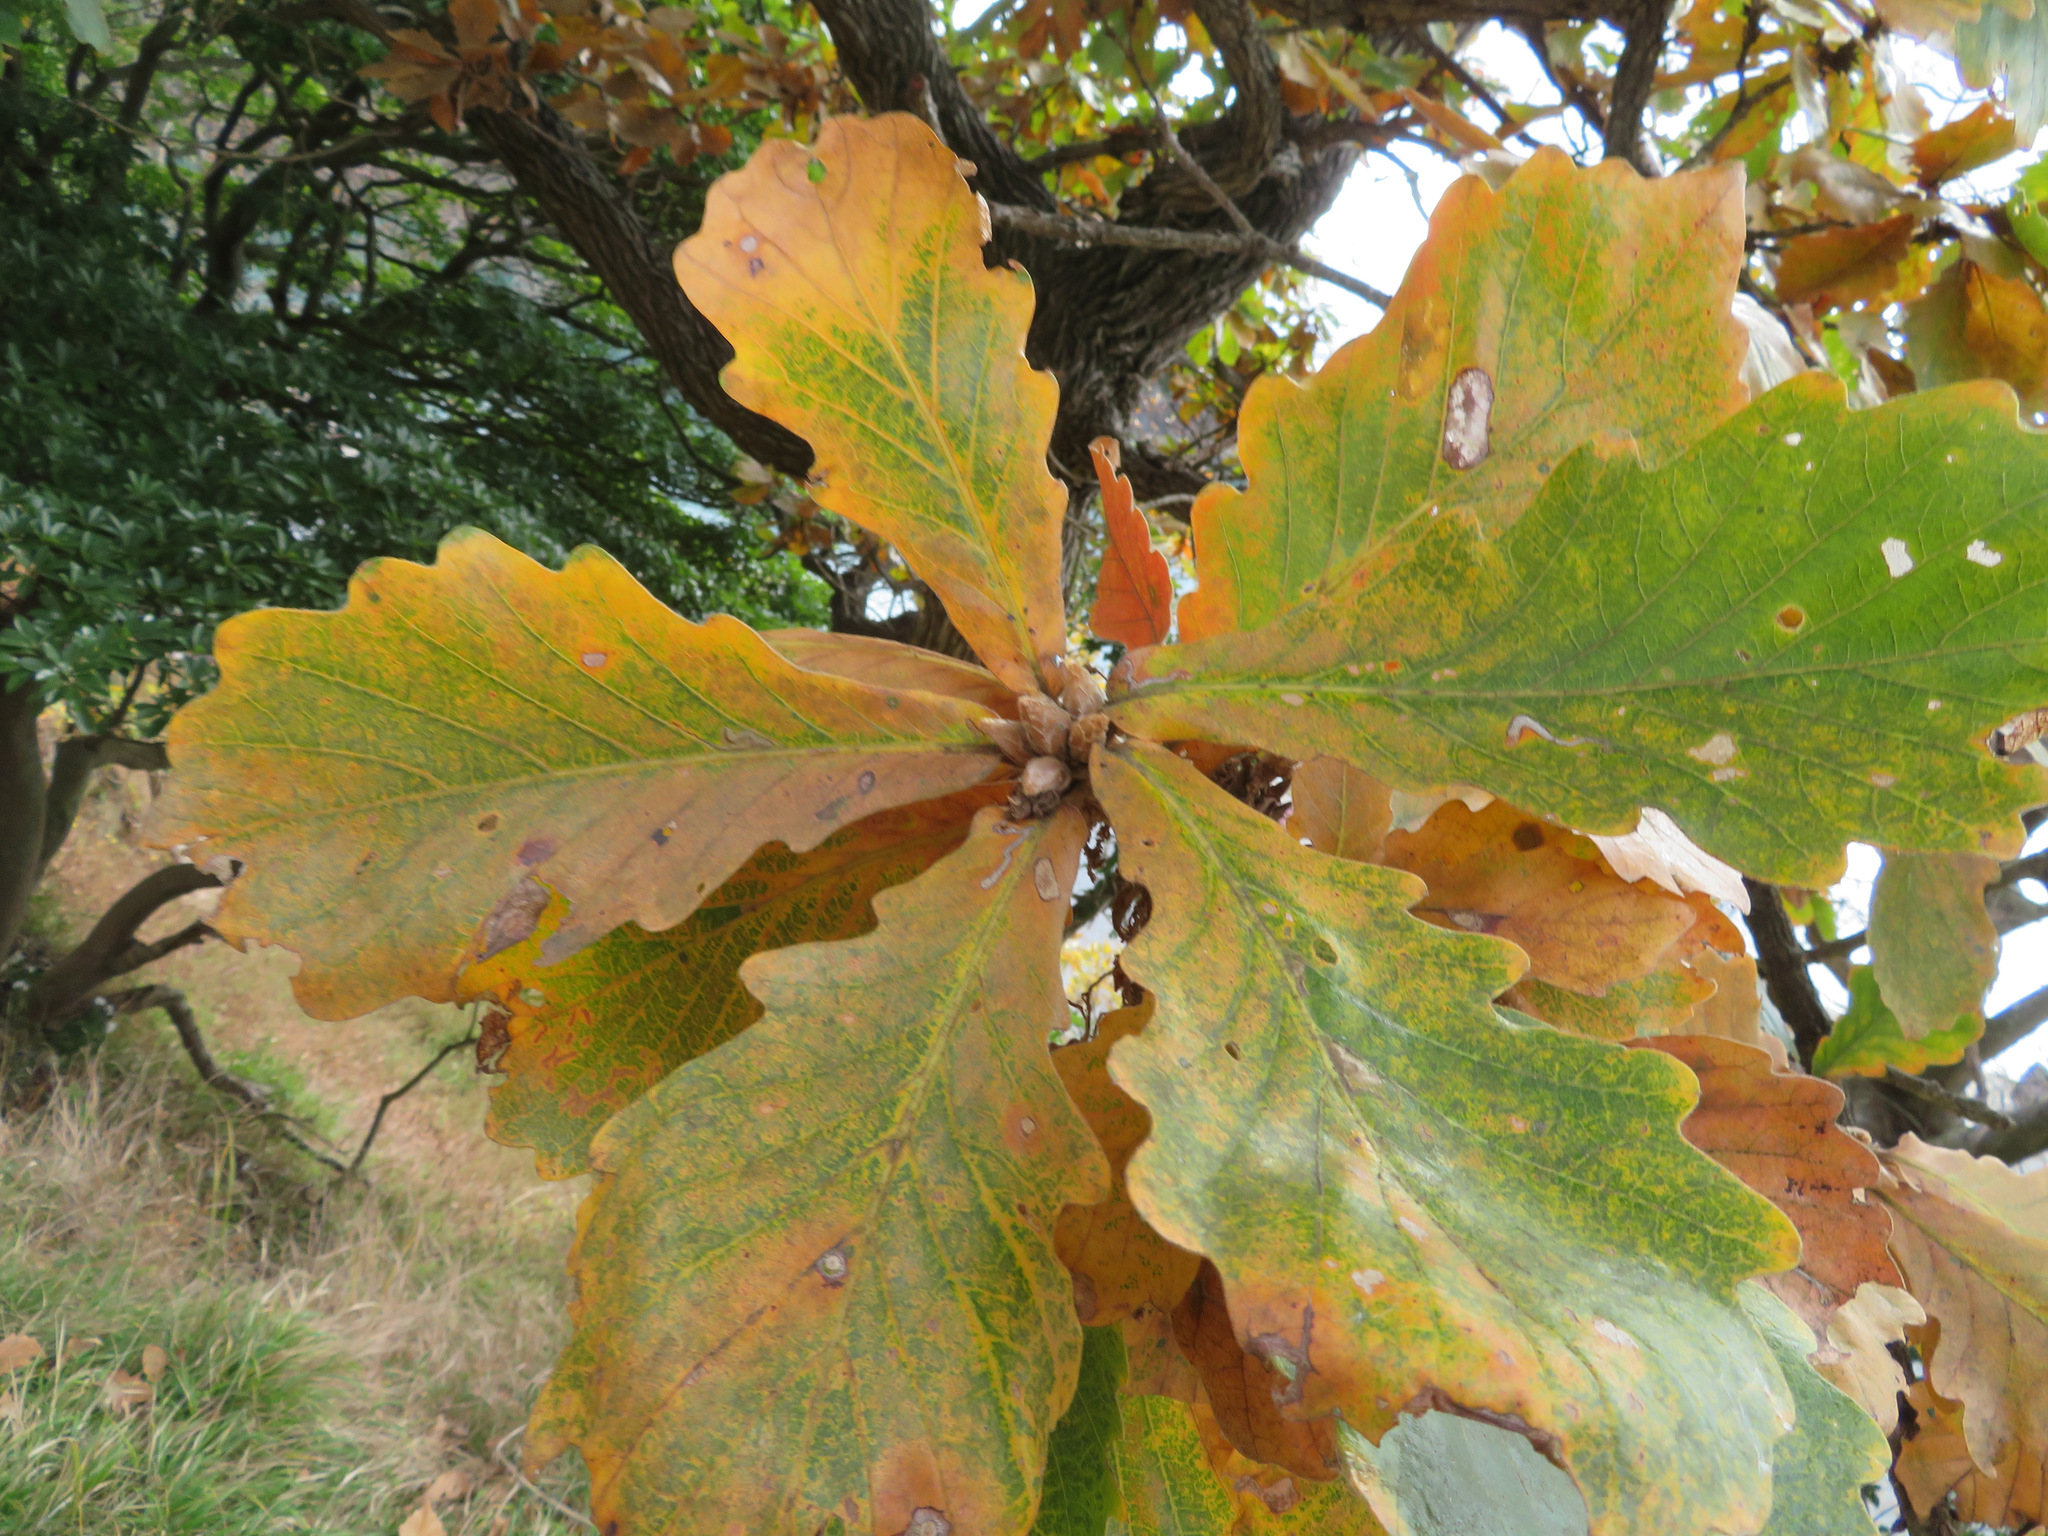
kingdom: Plantae
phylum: Tracheophyta
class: Magnoliopsida
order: Fagales
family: Fagaceae
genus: Quercus
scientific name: Quercus dentata
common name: Daimyo oak
